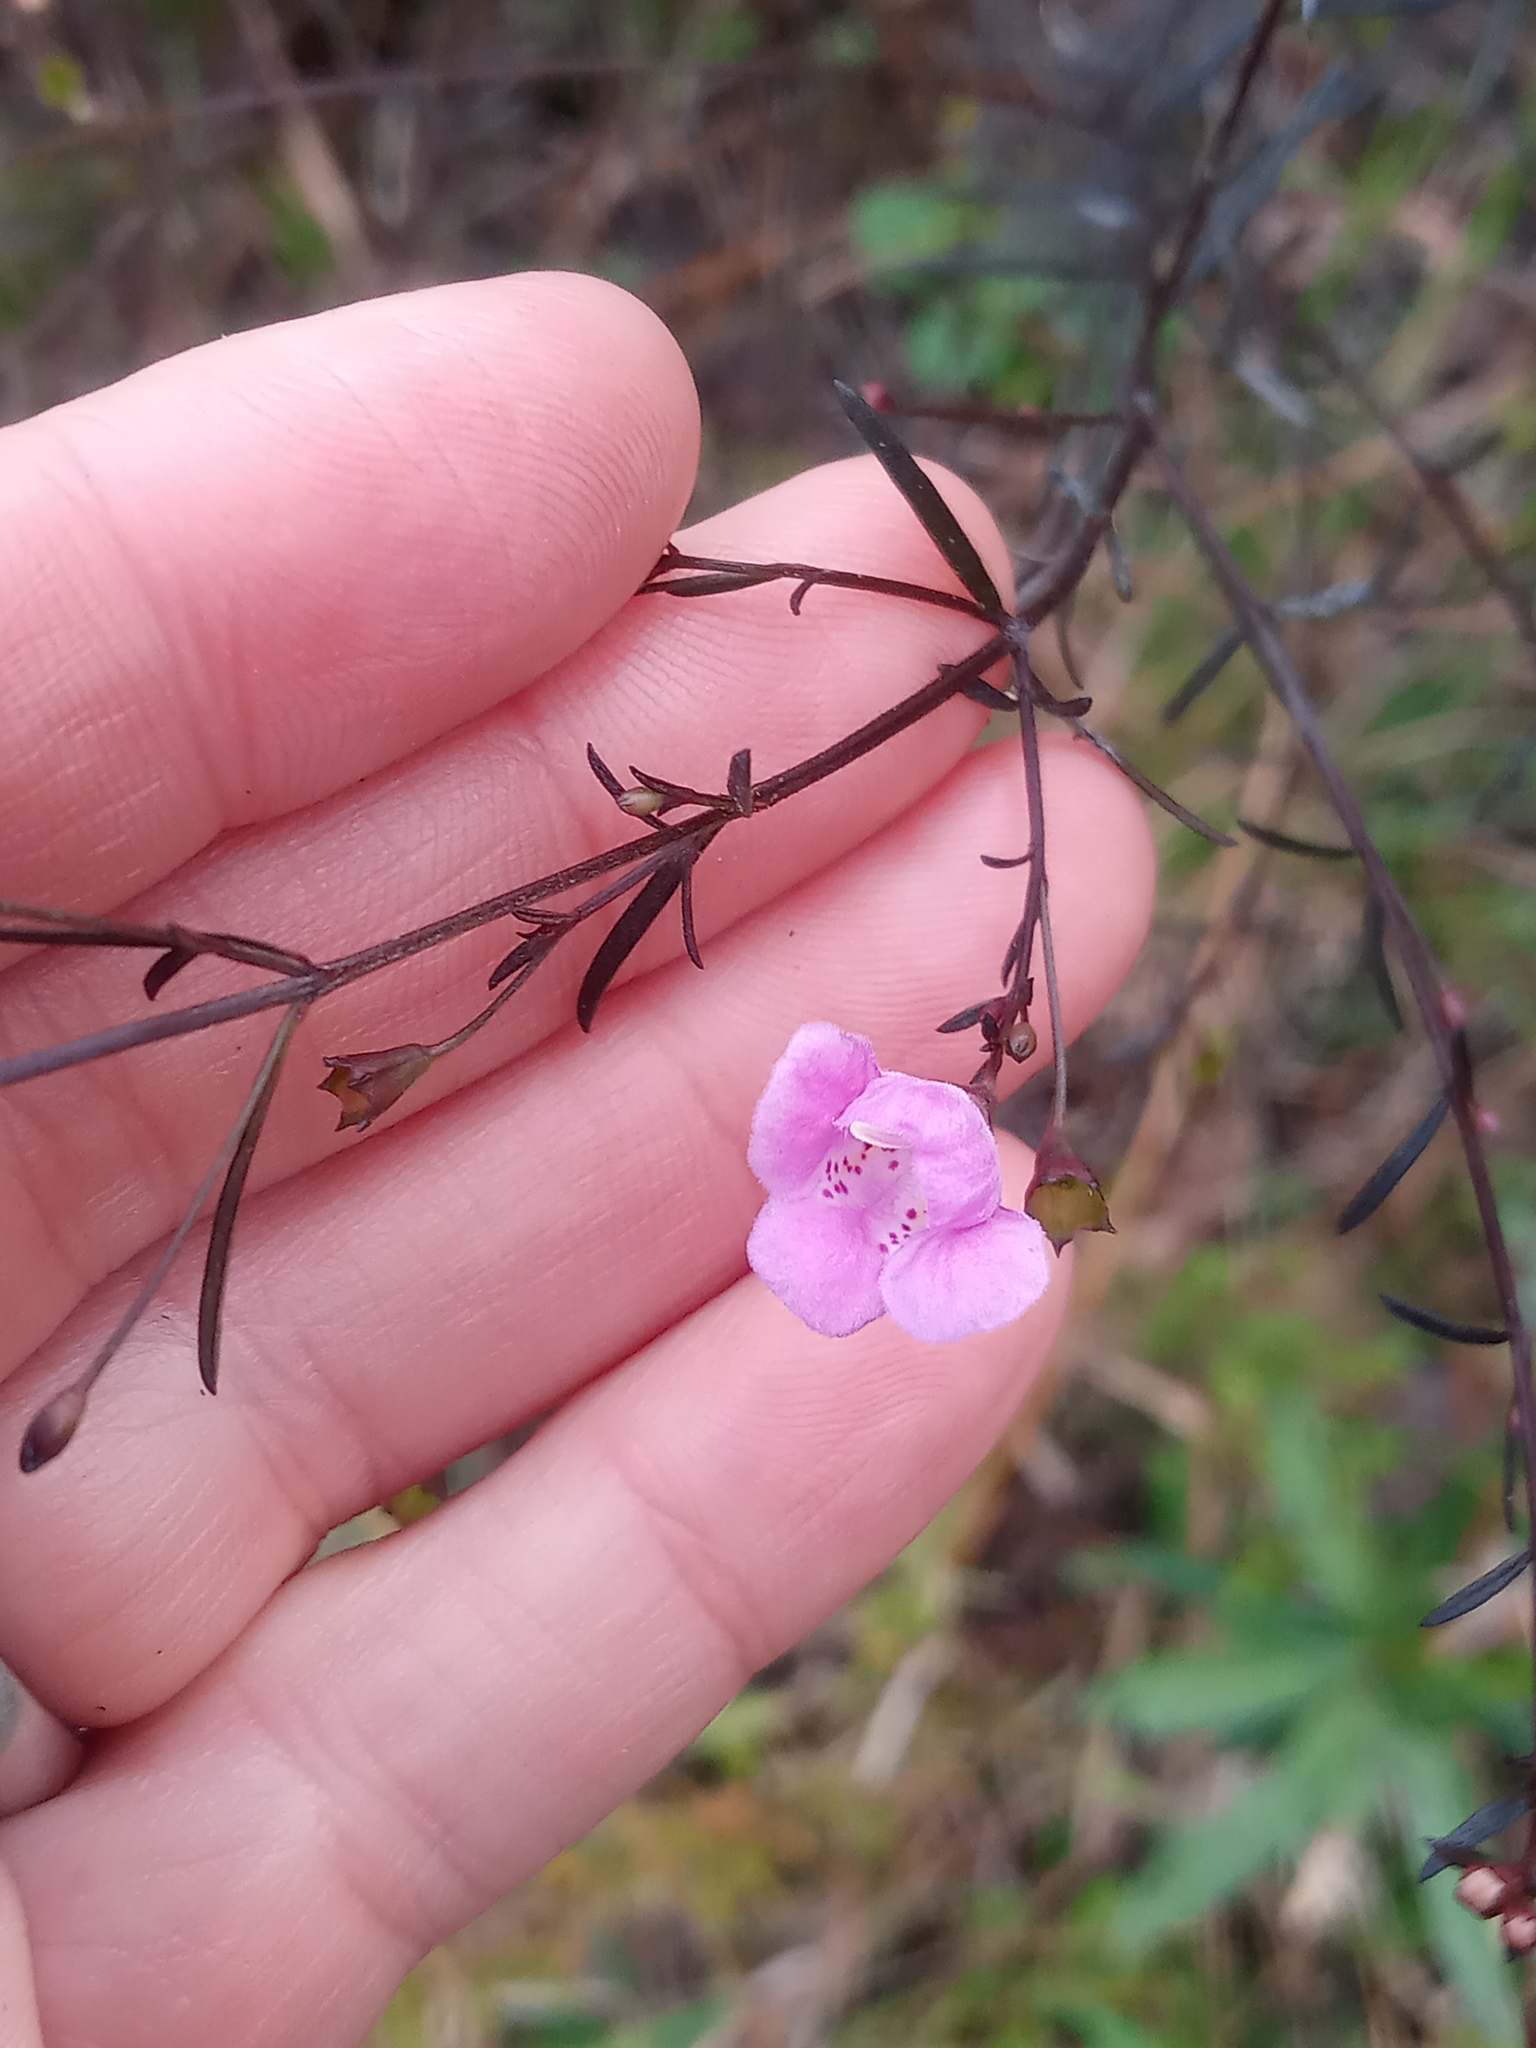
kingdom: Plantae
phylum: Tracheophyta
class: Magnoliopsida
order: Lamiales
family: Orobanchaceae
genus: Agalinis
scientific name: Agalinis purpurea
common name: Purple false foxglove
